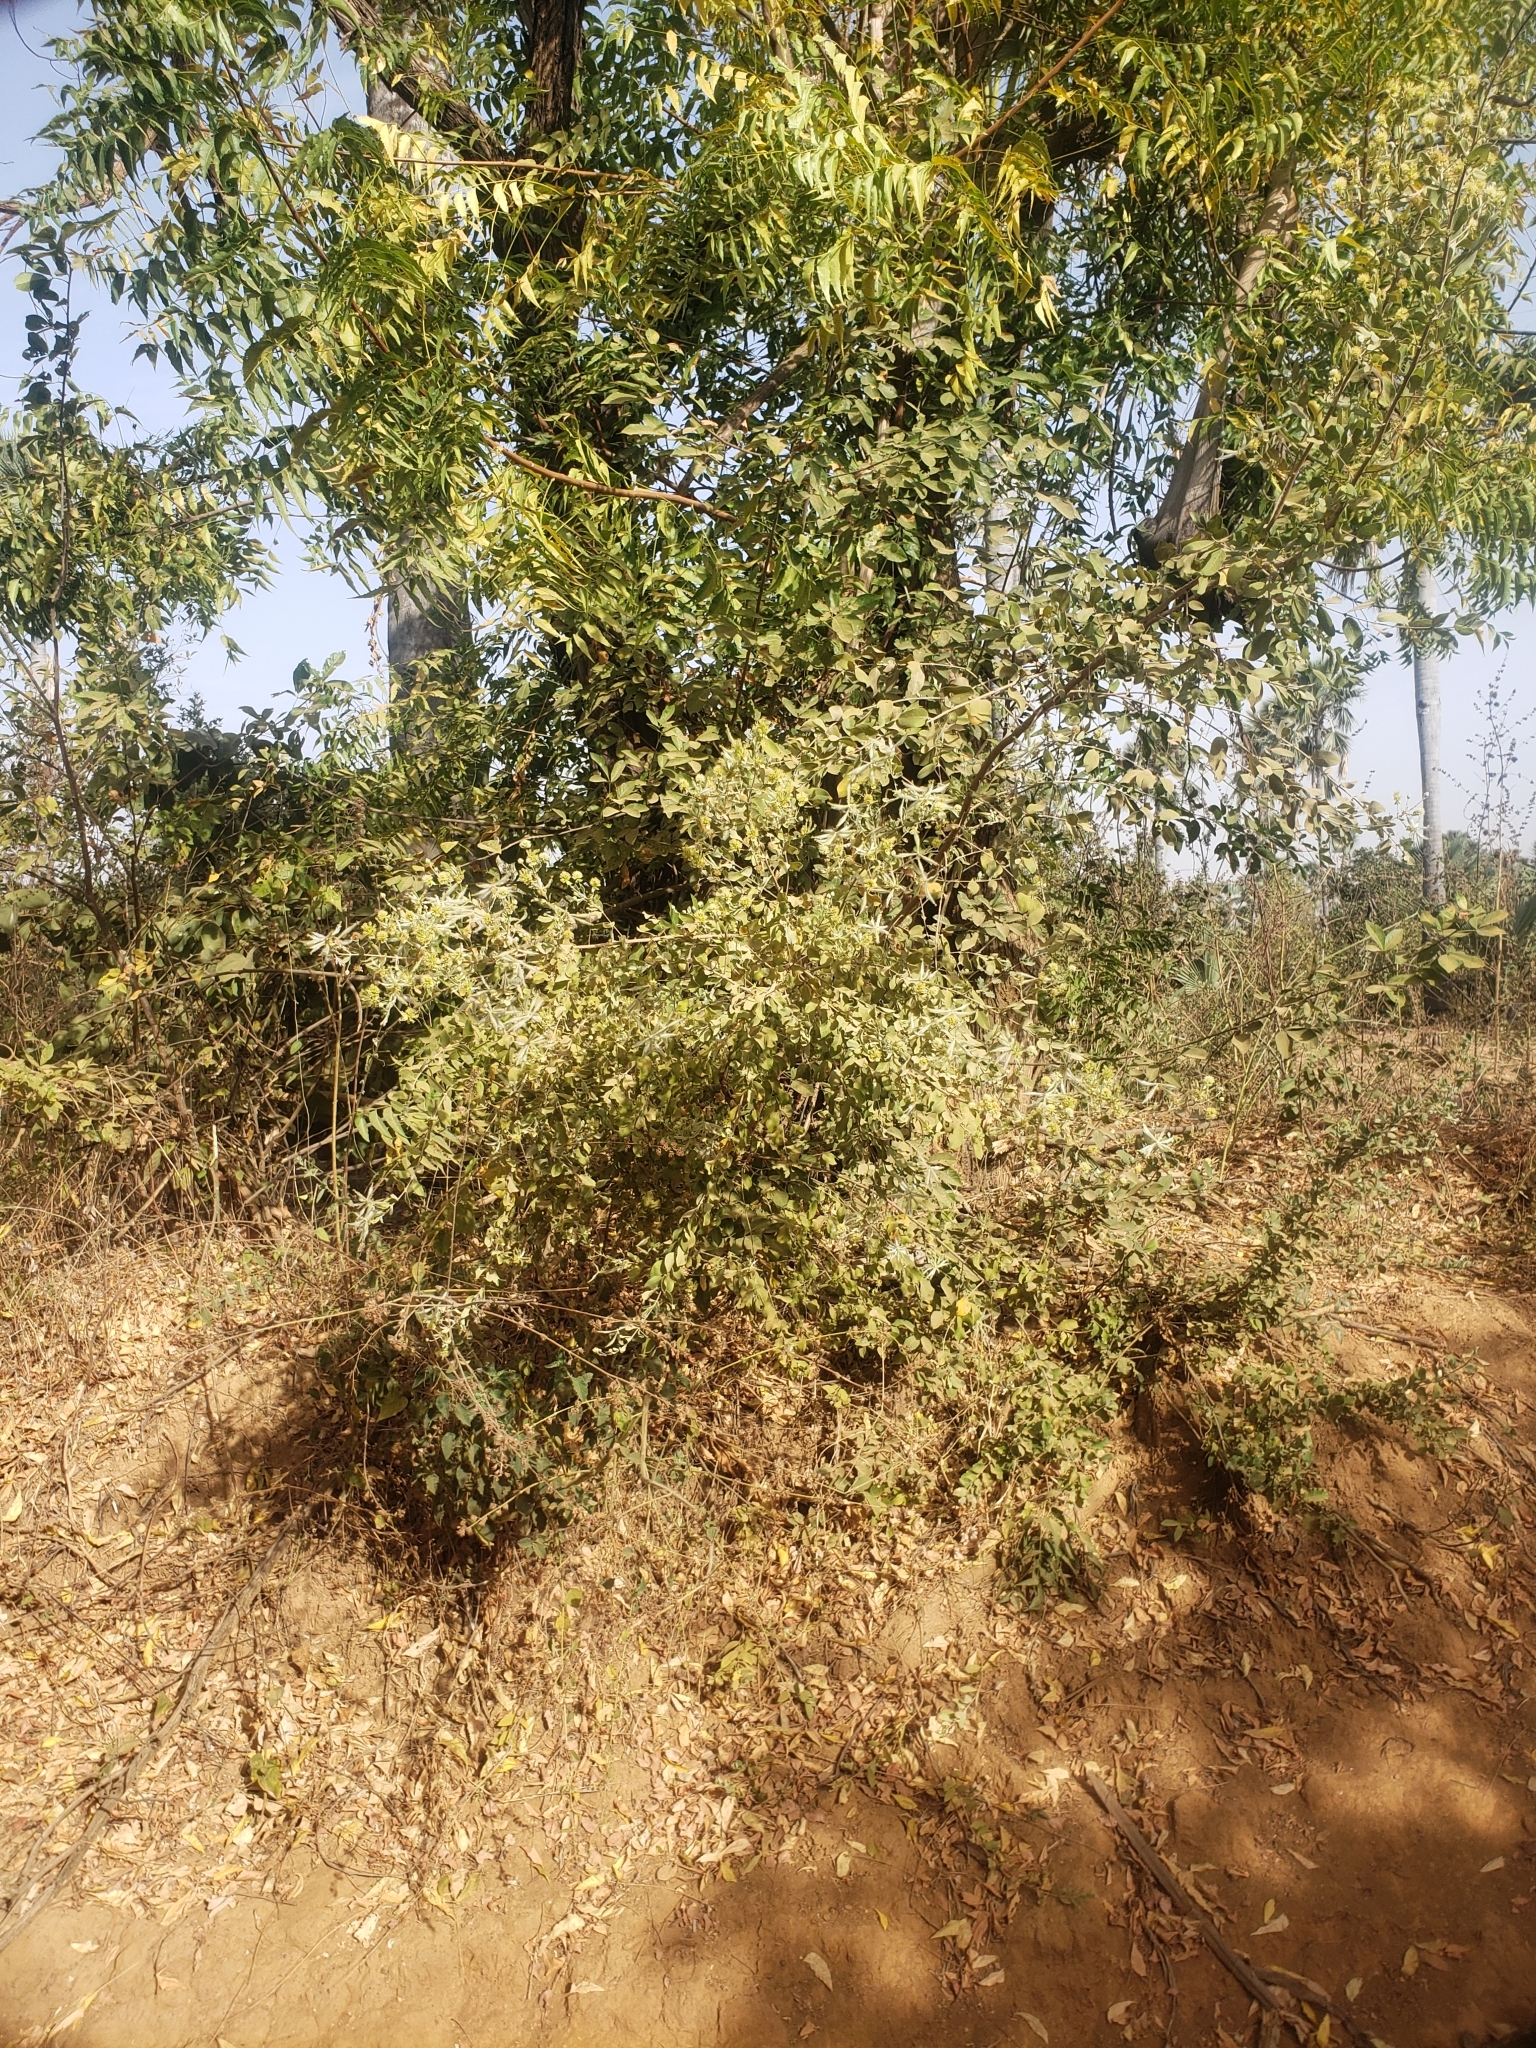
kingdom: Plantae
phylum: Tracheophyta
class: Magnoliopsida
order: Myrtales
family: Combretaceae
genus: Guiera
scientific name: Guiera senegalensis
